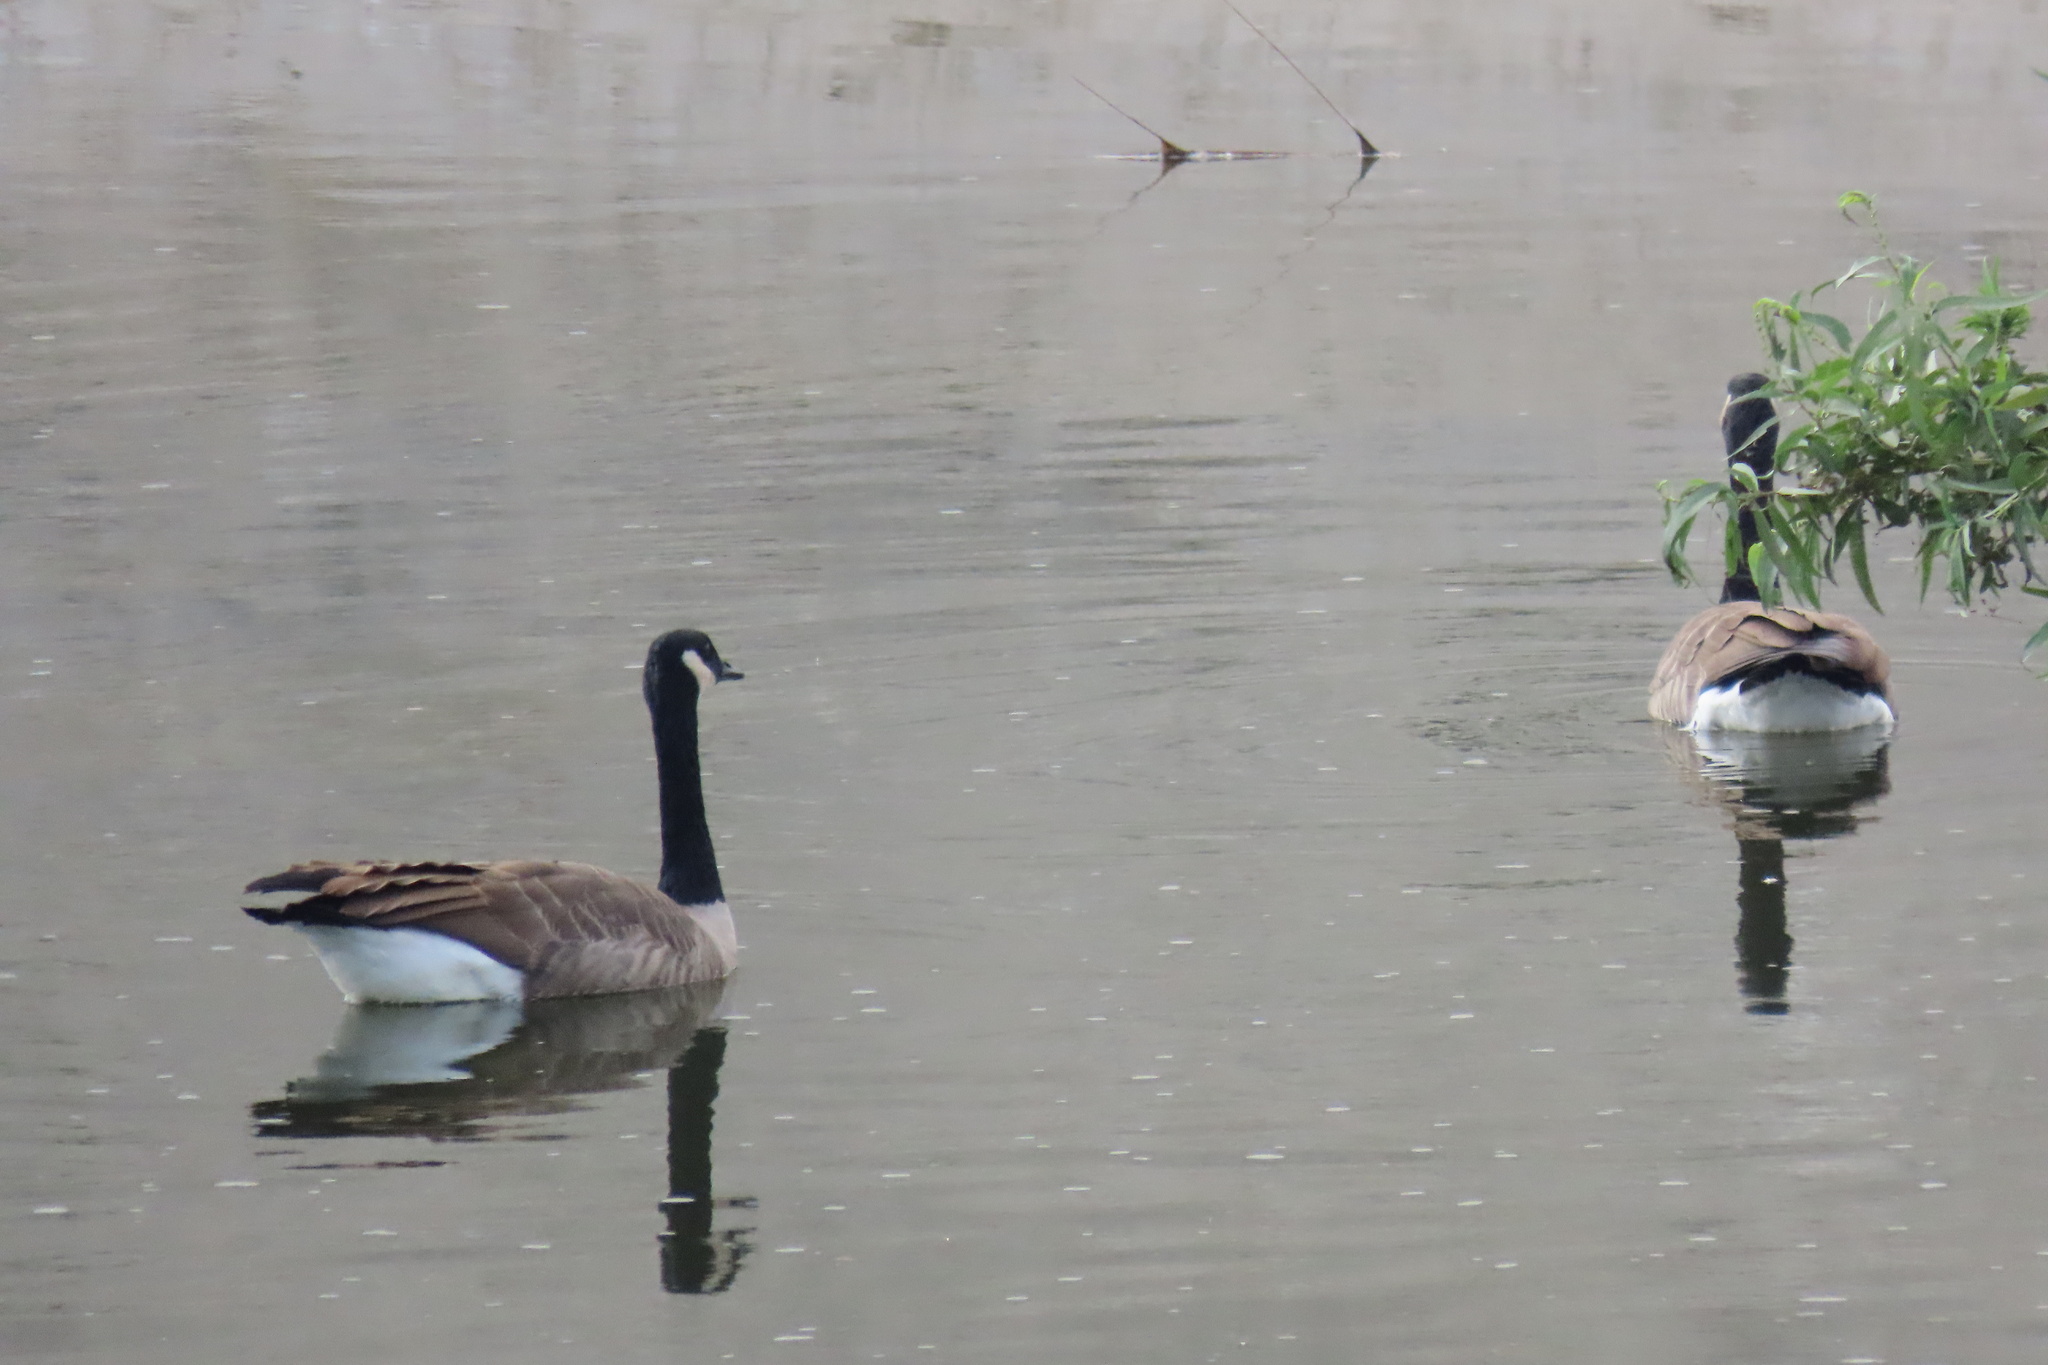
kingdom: Animalia
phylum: Chordata
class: Aves
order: Anseriformes
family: Anatidae
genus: Branta
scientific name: Branta canadensis
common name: Canada goose
